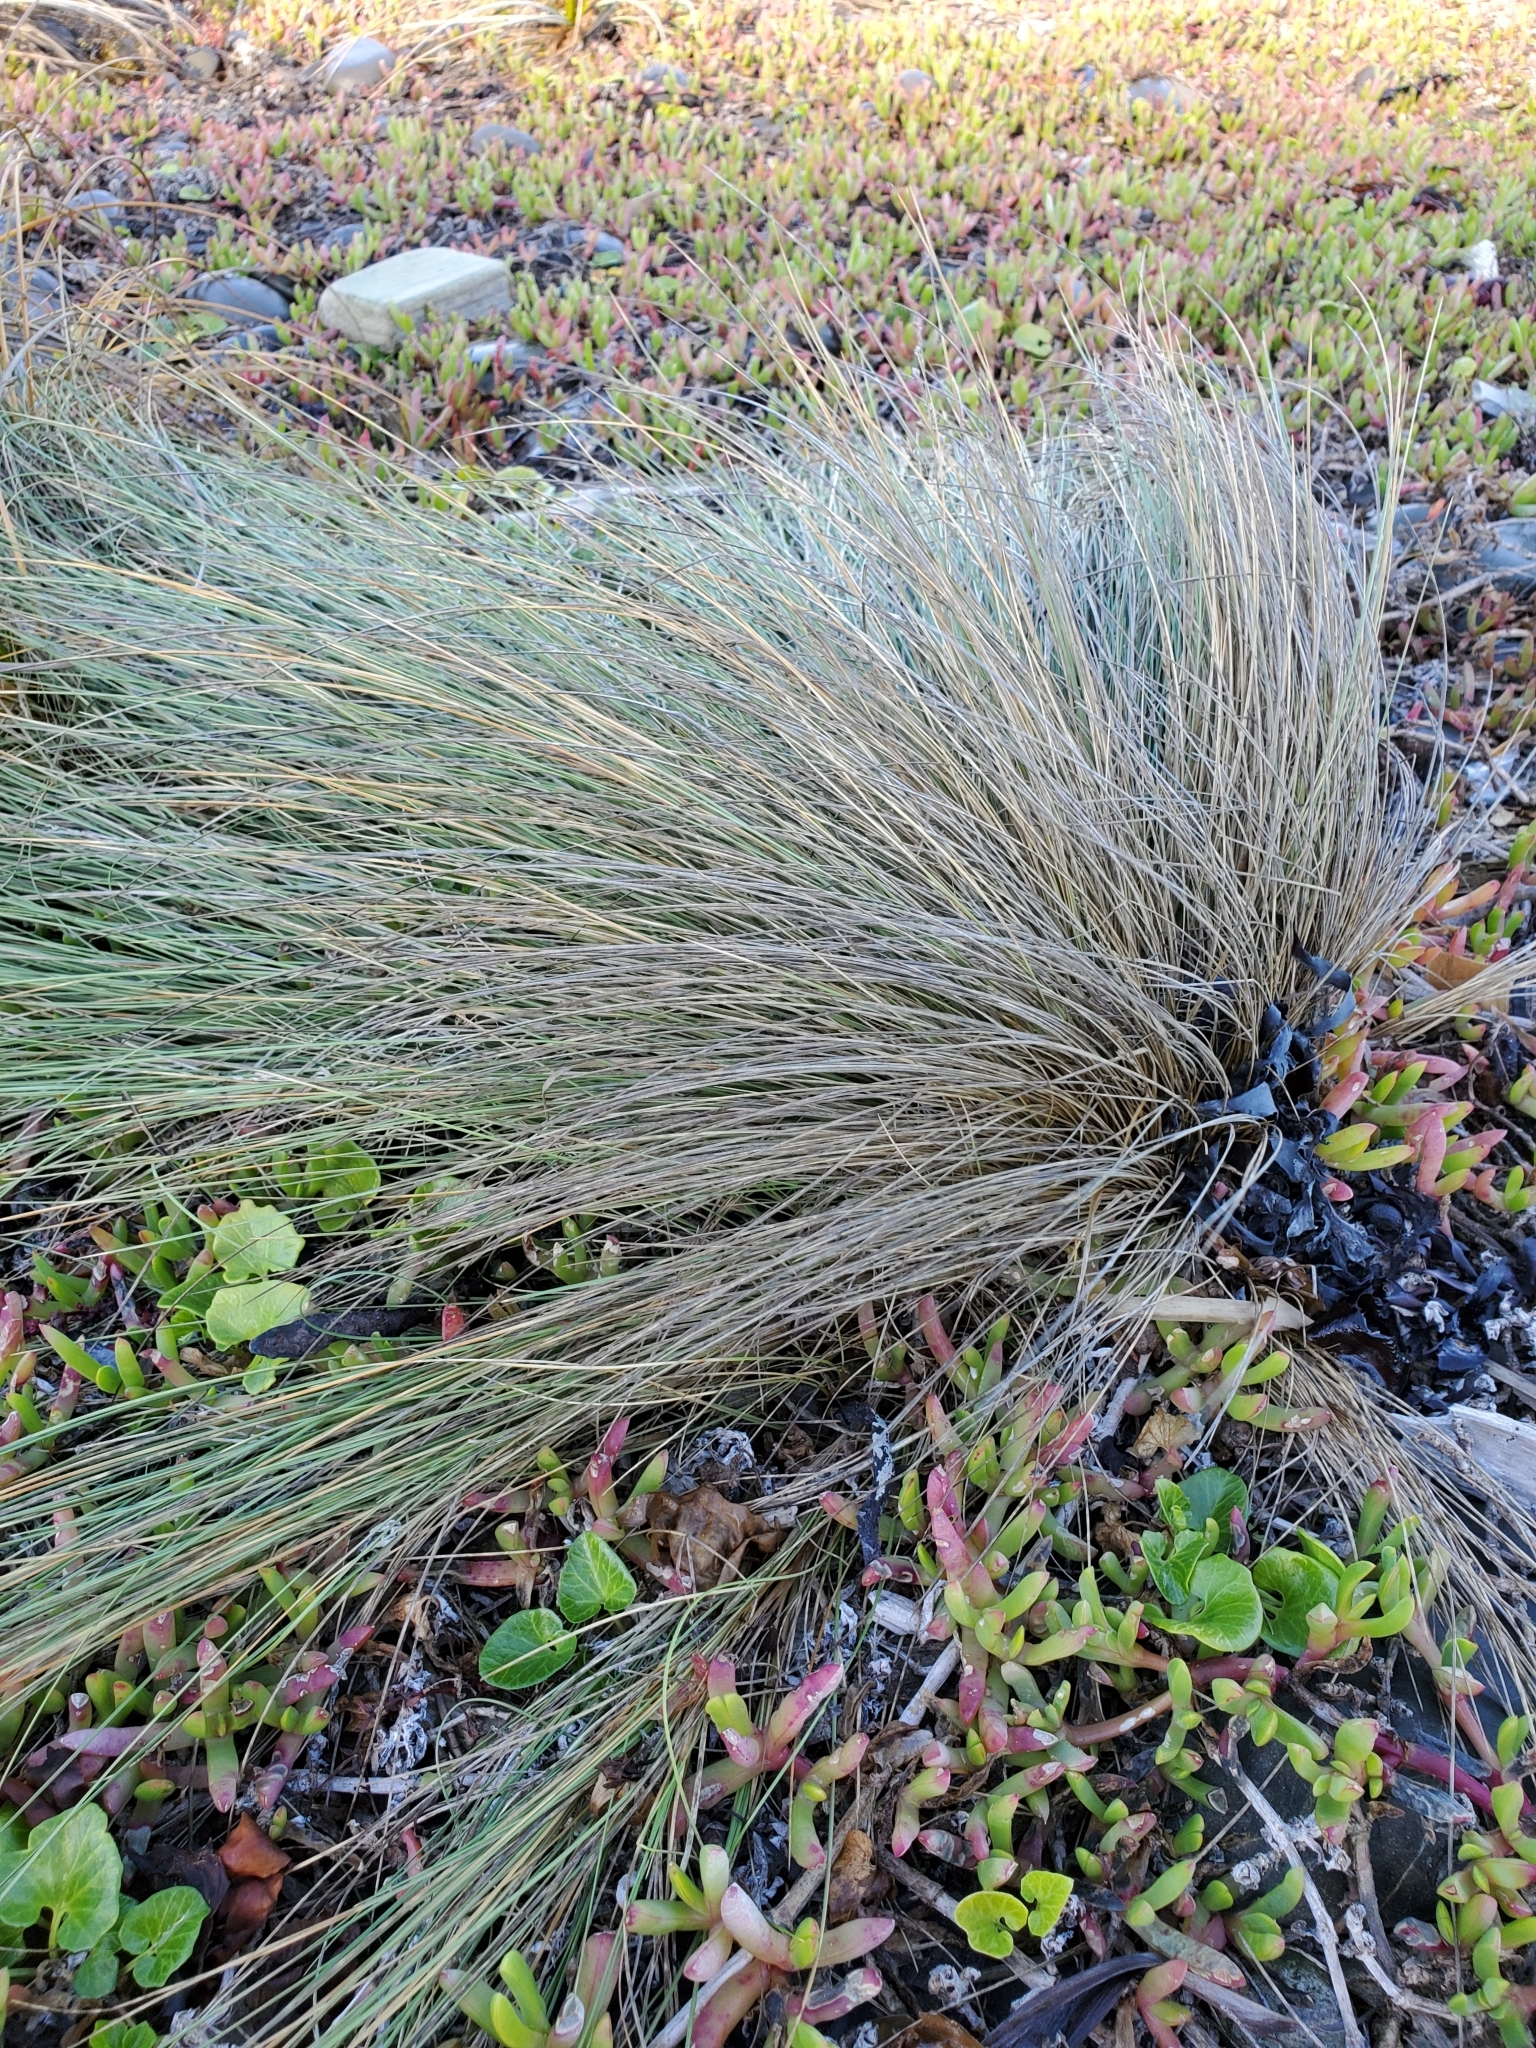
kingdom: Plantae
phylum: Tracheophyta
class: Liliopsida
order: Poales
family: Poaceae
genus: Poa
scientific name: Poa cita
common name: Silver tussock
